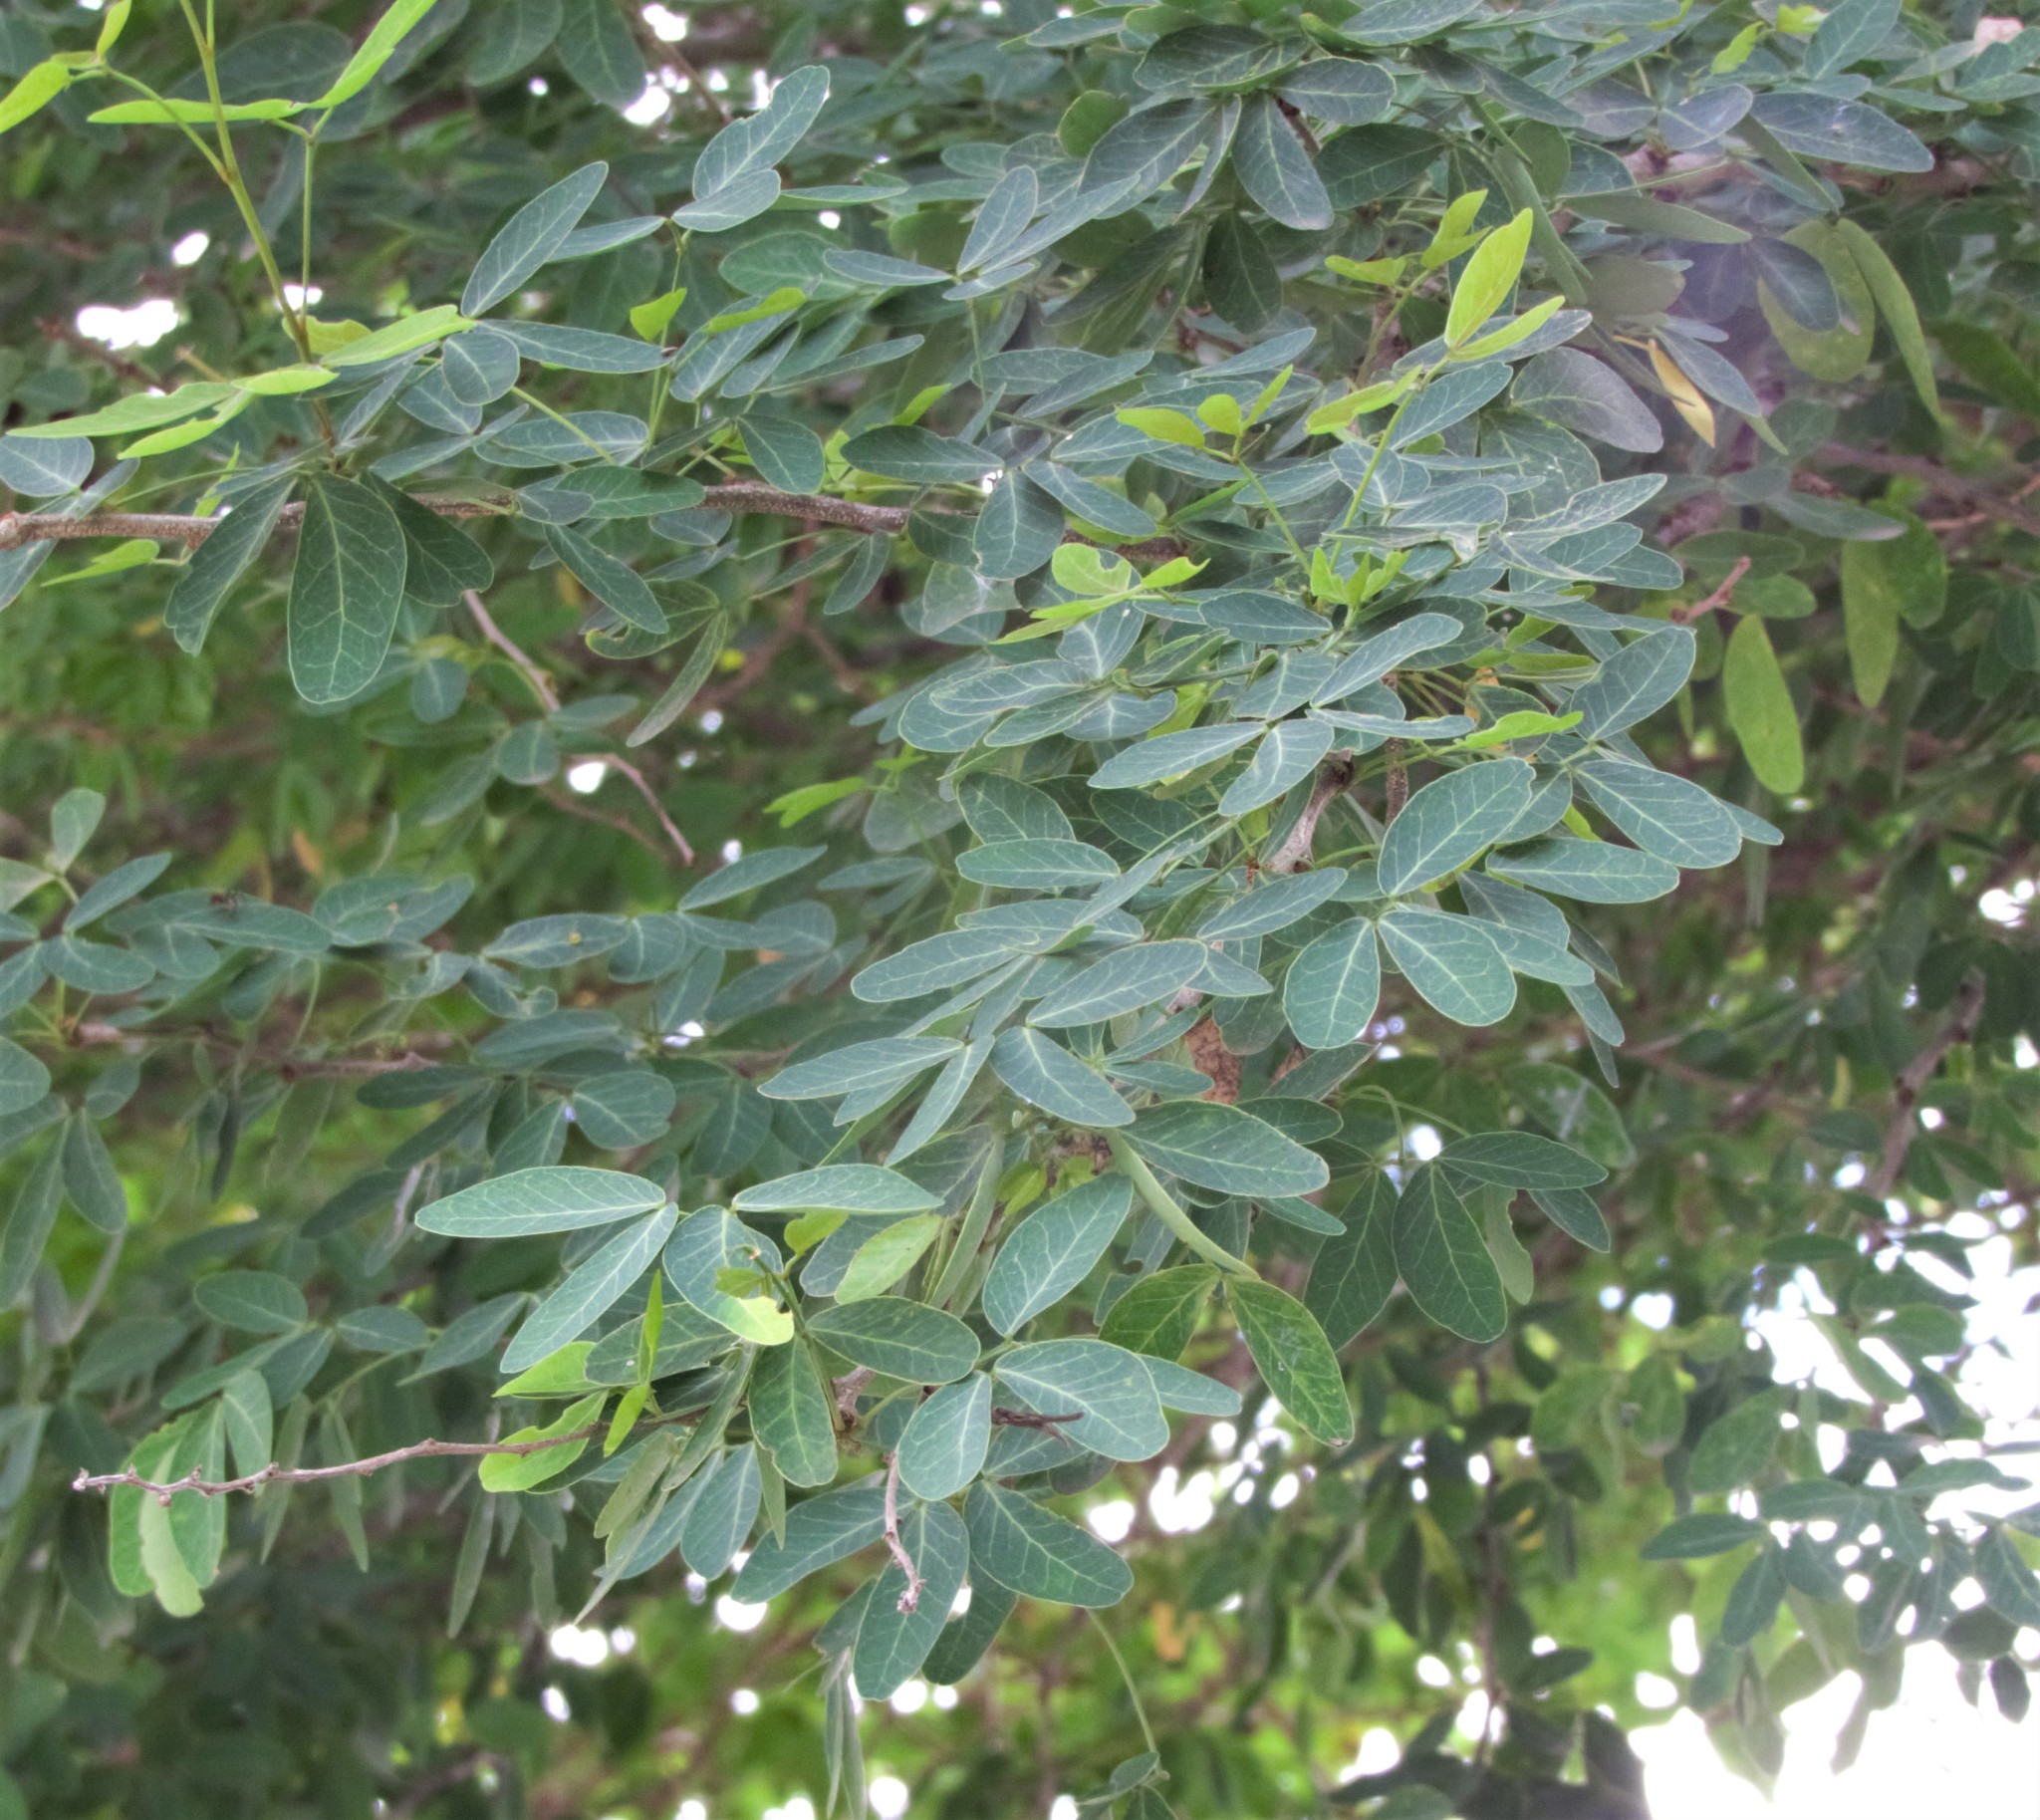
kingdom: Plantae
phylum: Tracheophyta
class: Magnoliopsida
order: Fabales
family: Fabaceae
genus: Pithecellobium
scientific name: Pithecellobium dulce
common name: Monkeypod
